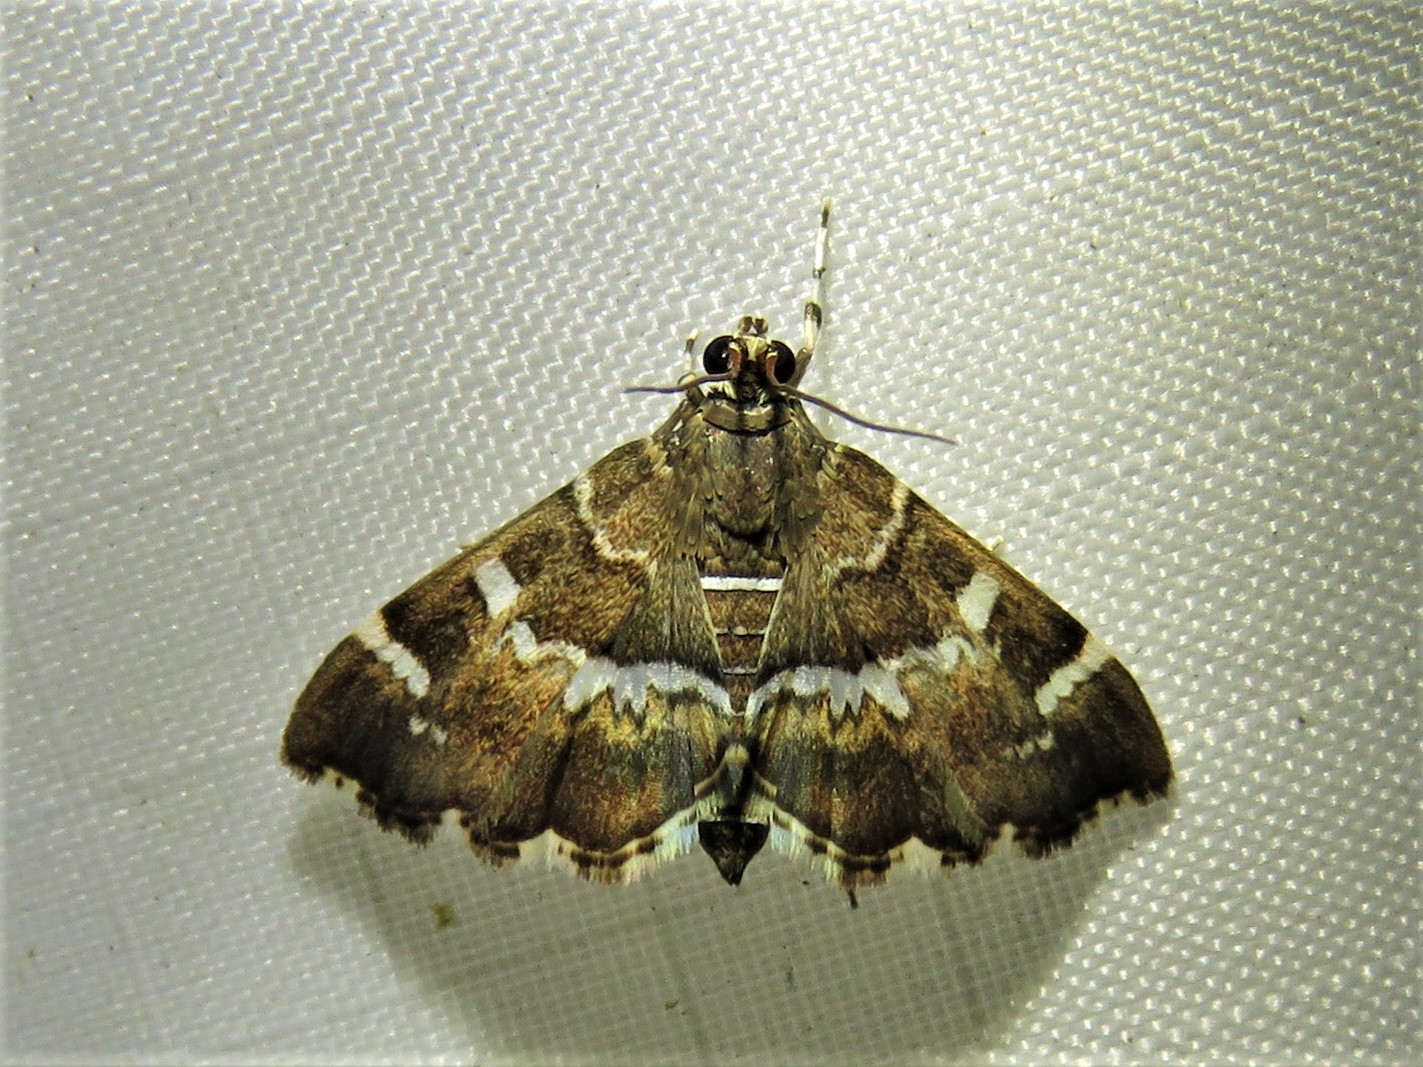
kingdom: Animalia
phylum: Arthropoda
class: Insecta
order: Lepidoptera
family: Crambidae
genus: Hymenia
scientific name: Hymenia perspectalis
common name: Spotted beet webworm
